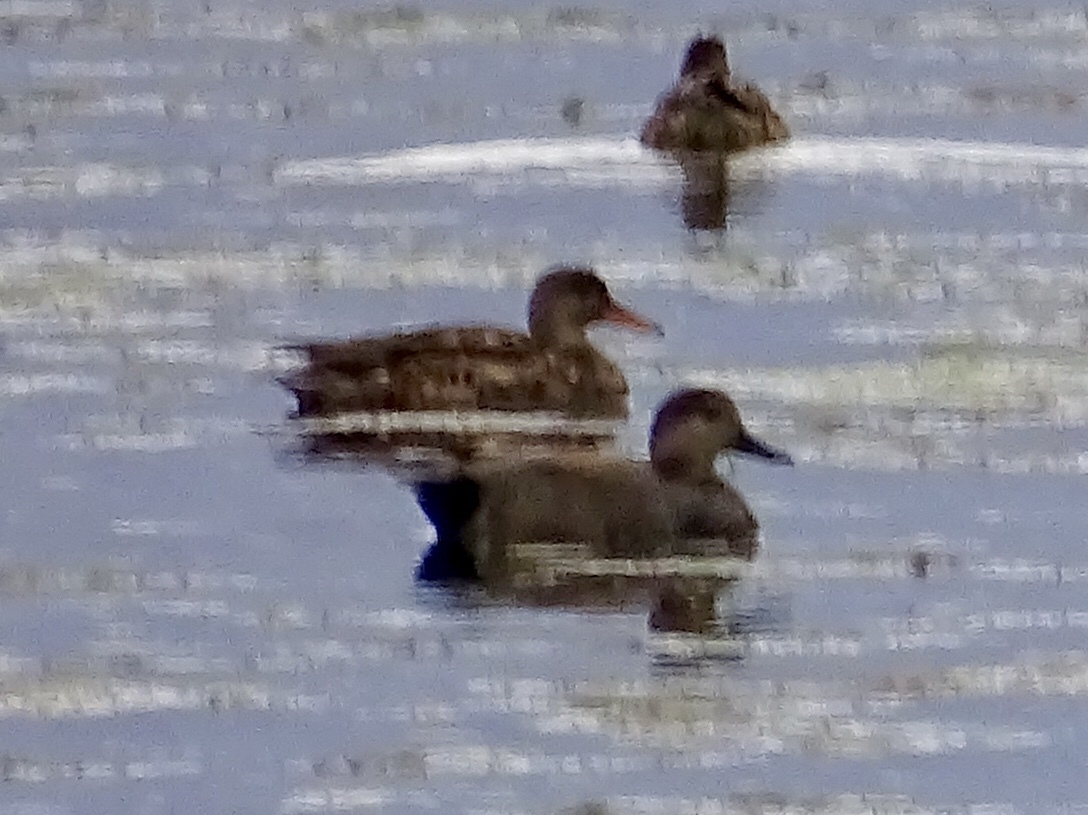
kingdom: Animalia
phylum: Chordata
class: Aves
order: Anseriformes
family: Anatidae
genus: Mareca
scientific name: Mareca strepera
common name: Gadwall
